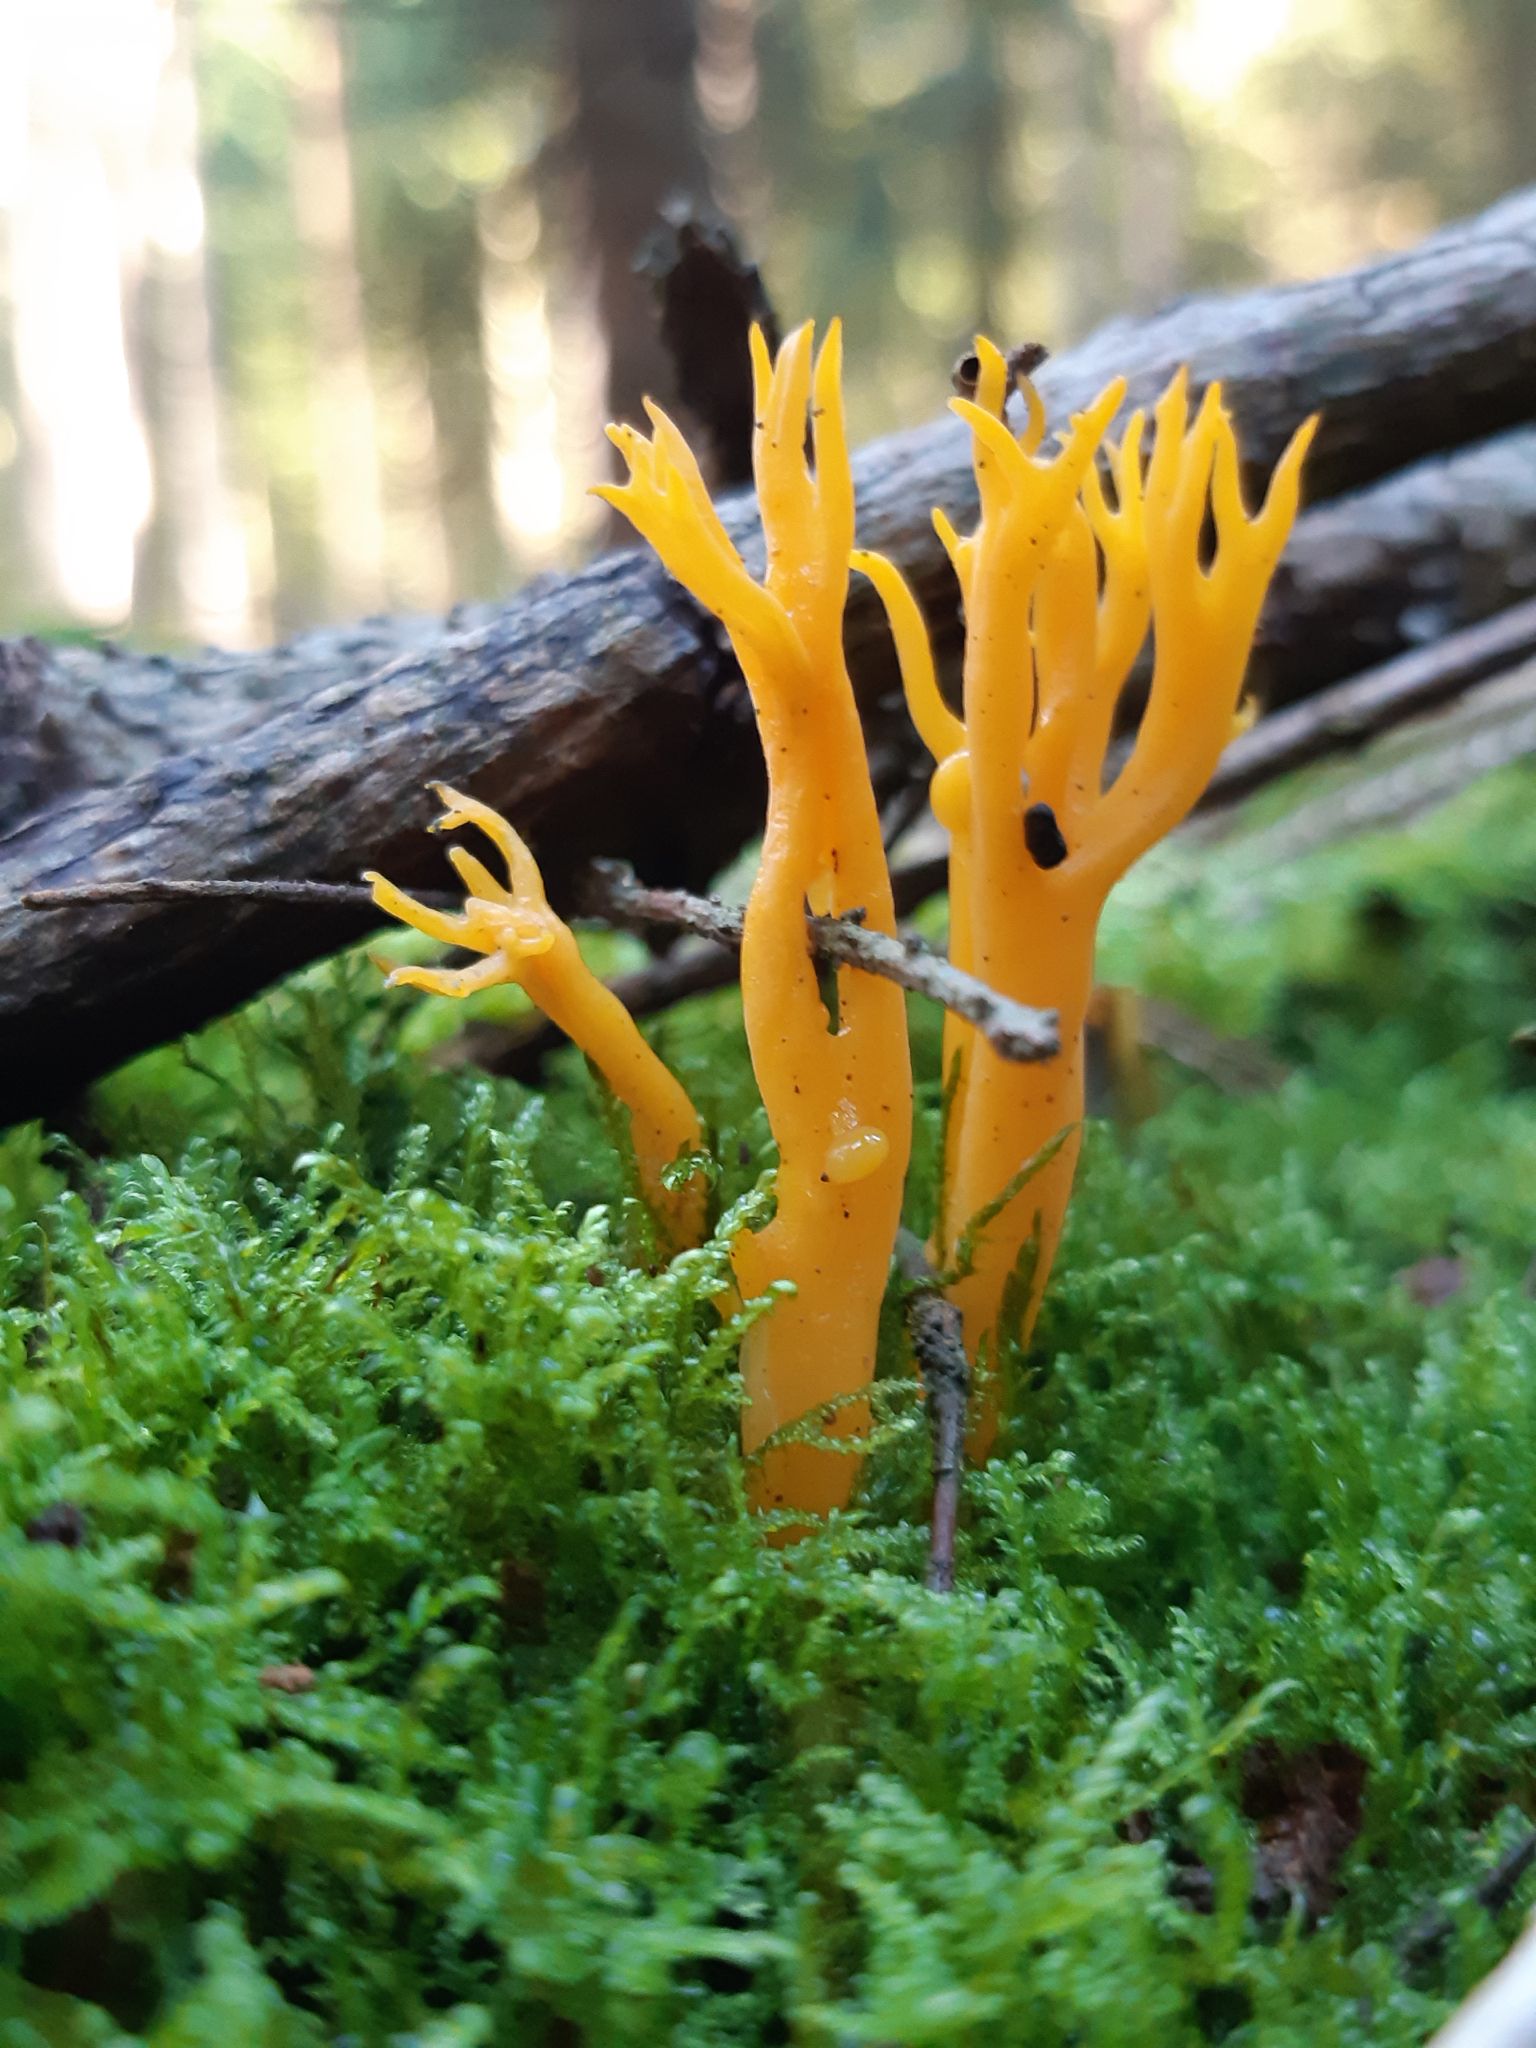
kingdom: Fungi
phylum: Basidiomycota
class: Dacrymycetes
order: Dacrymycetales
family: Dacrymycetaceae
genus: Calocera
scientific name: Calocera viscosa
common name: Yellow stagshorn
